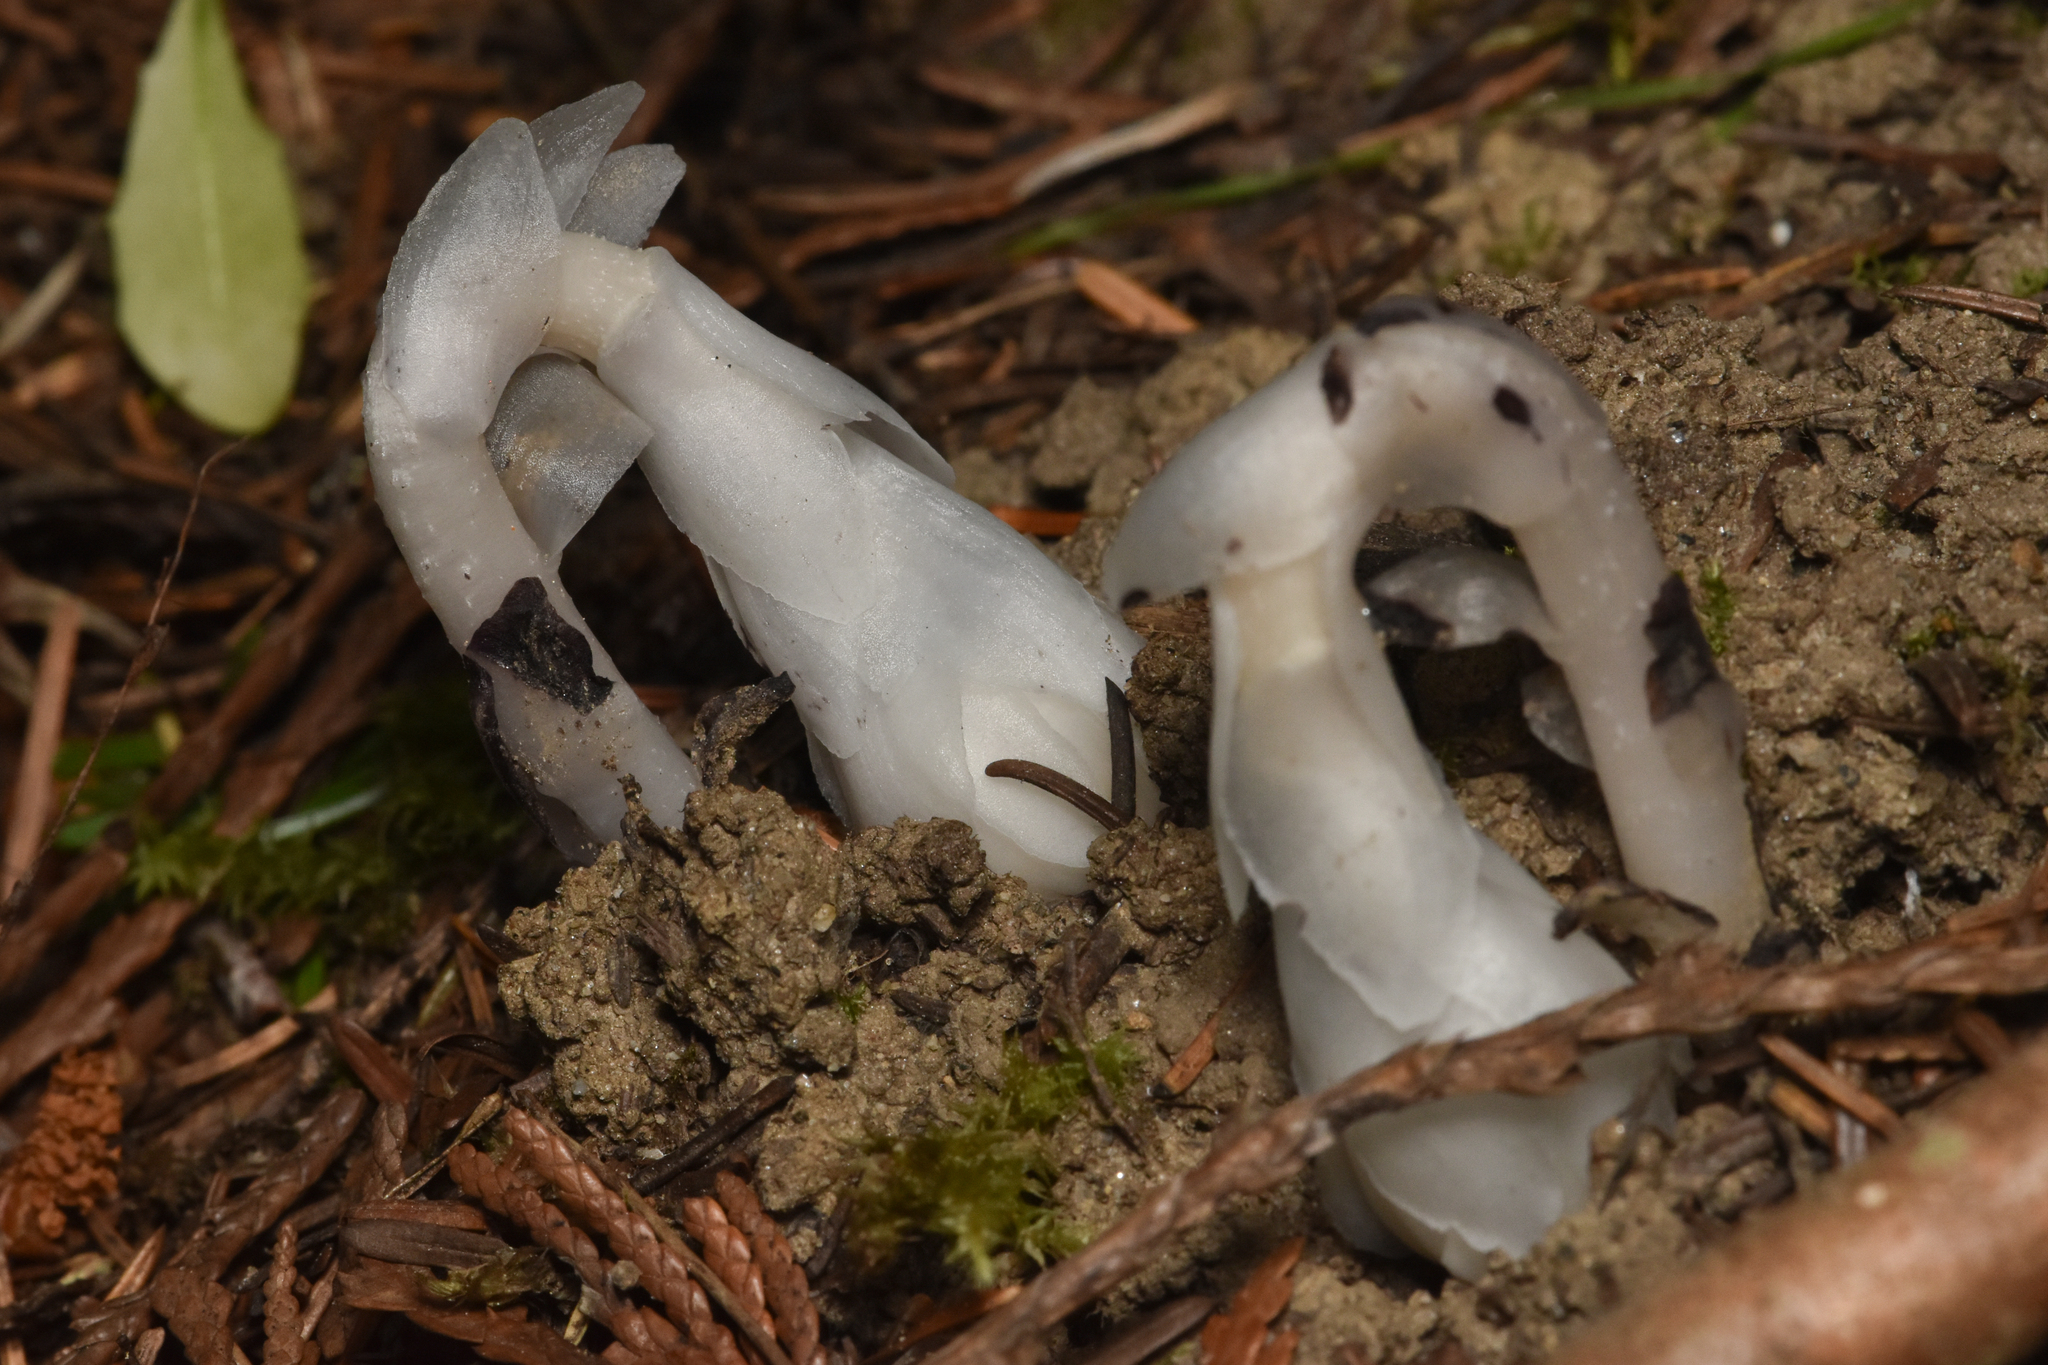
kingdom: Plantae
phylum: Tracheophyta
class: Magnoliopsida
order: Ericales
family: Ericaceae
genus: Monotropa
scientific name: Monotropa uniflora
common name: Convulsion root
